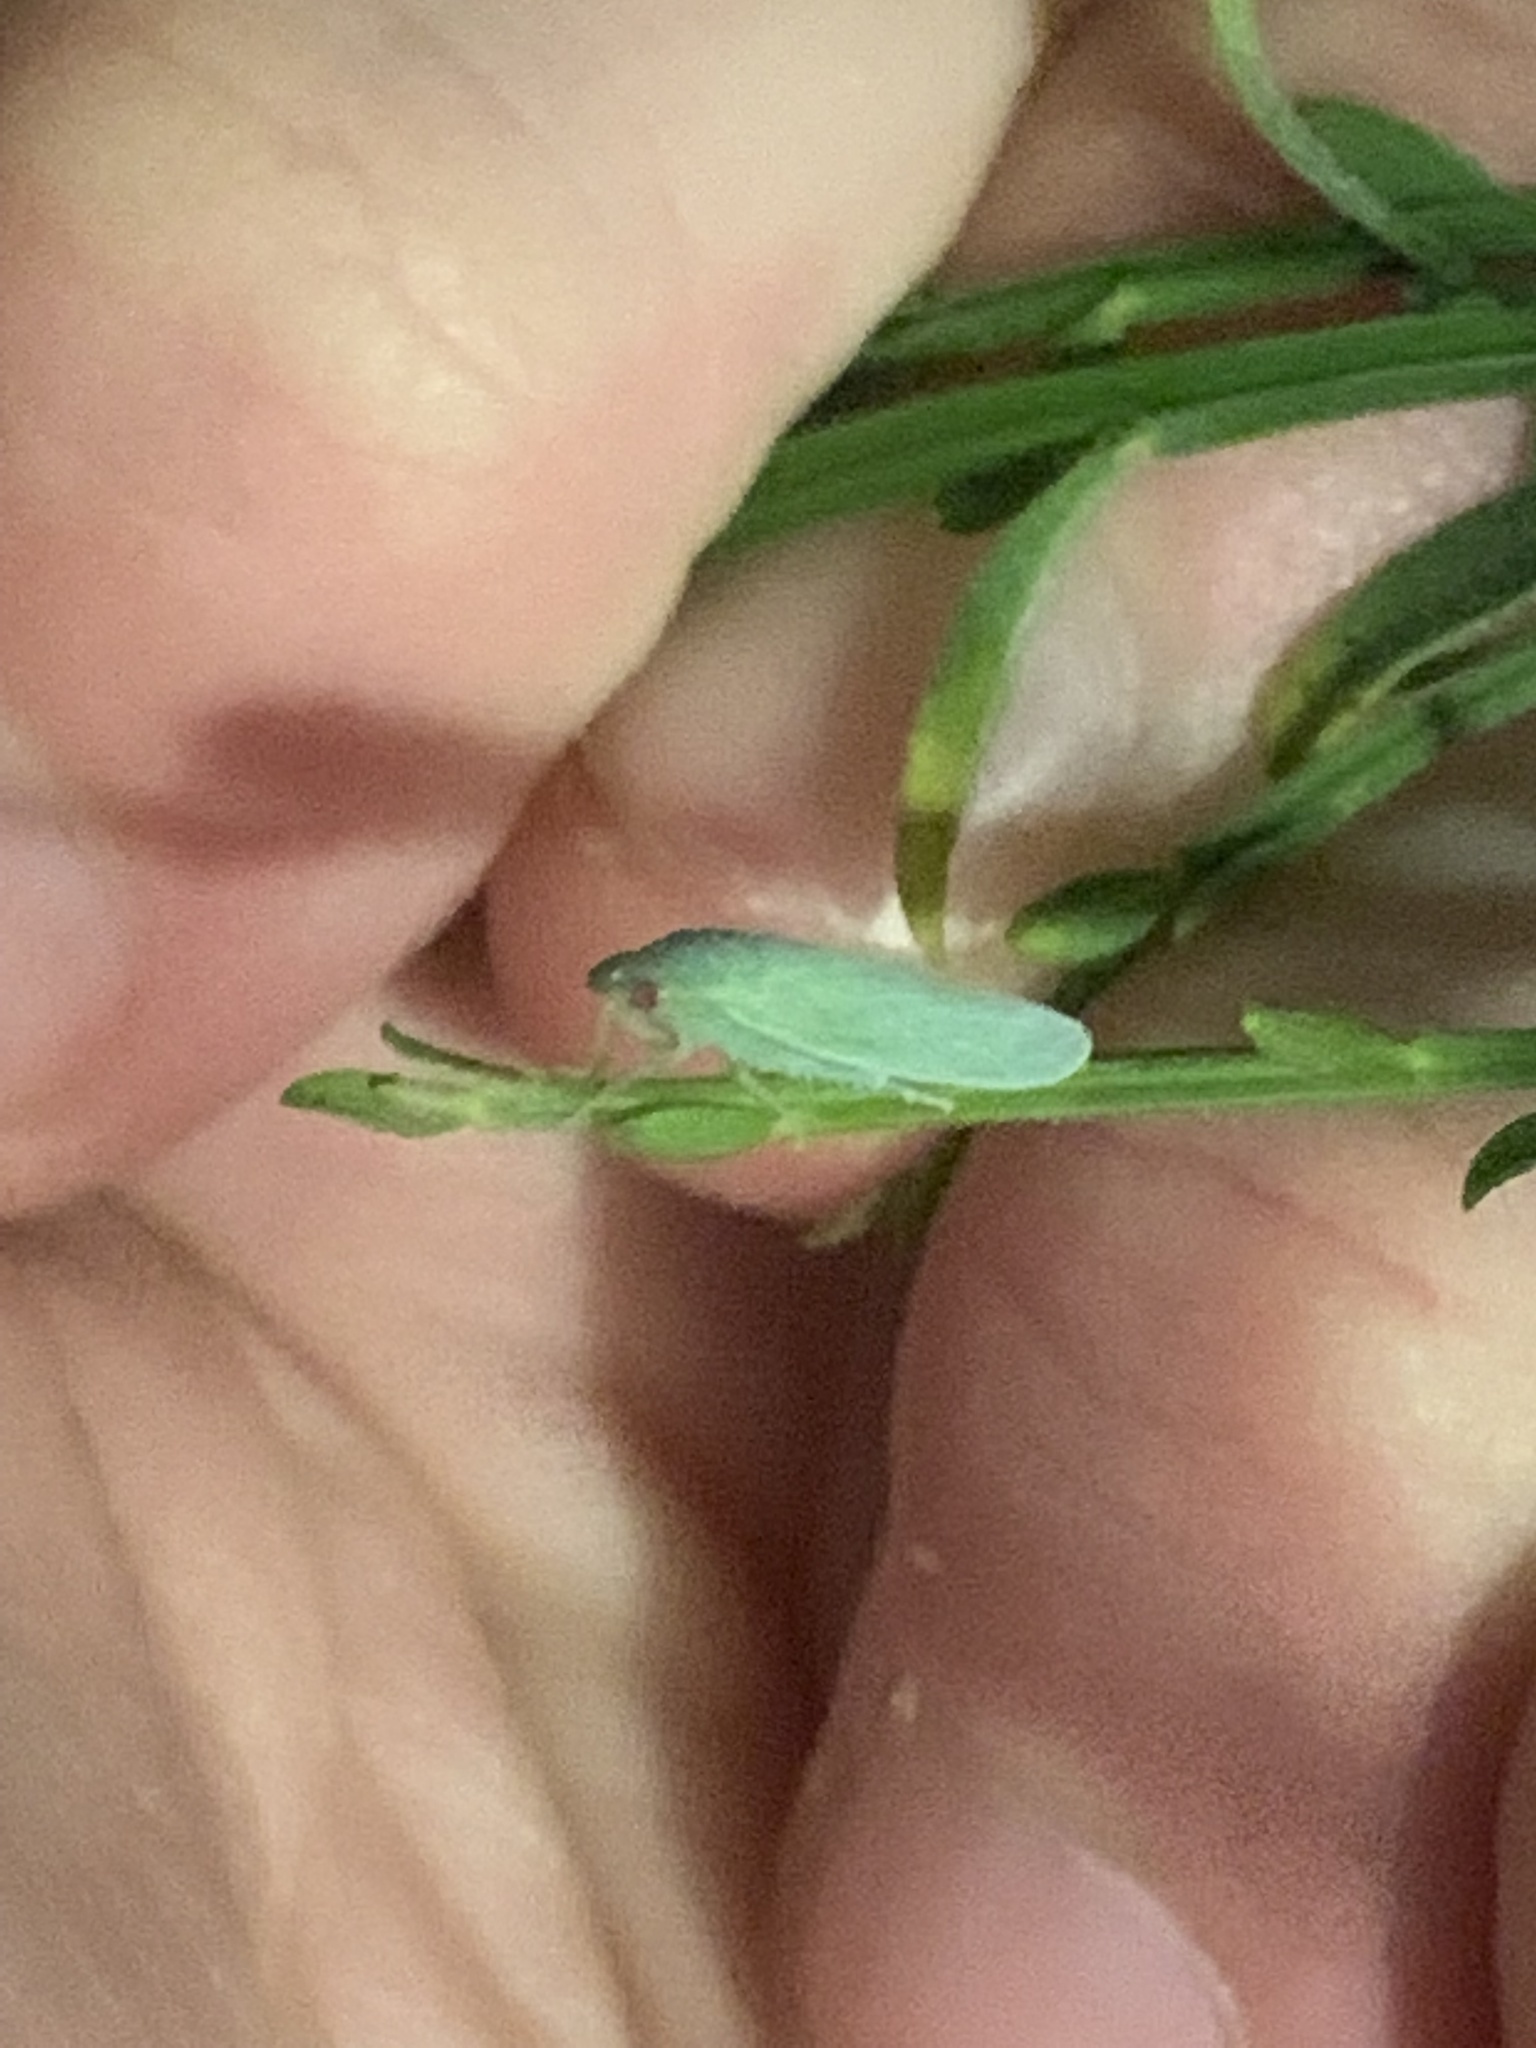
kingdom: Animalia
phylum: Arthropoda
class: Insecta
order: Hemiptera
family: Cicadellidae
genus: Gyponana
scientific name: Gyponana
